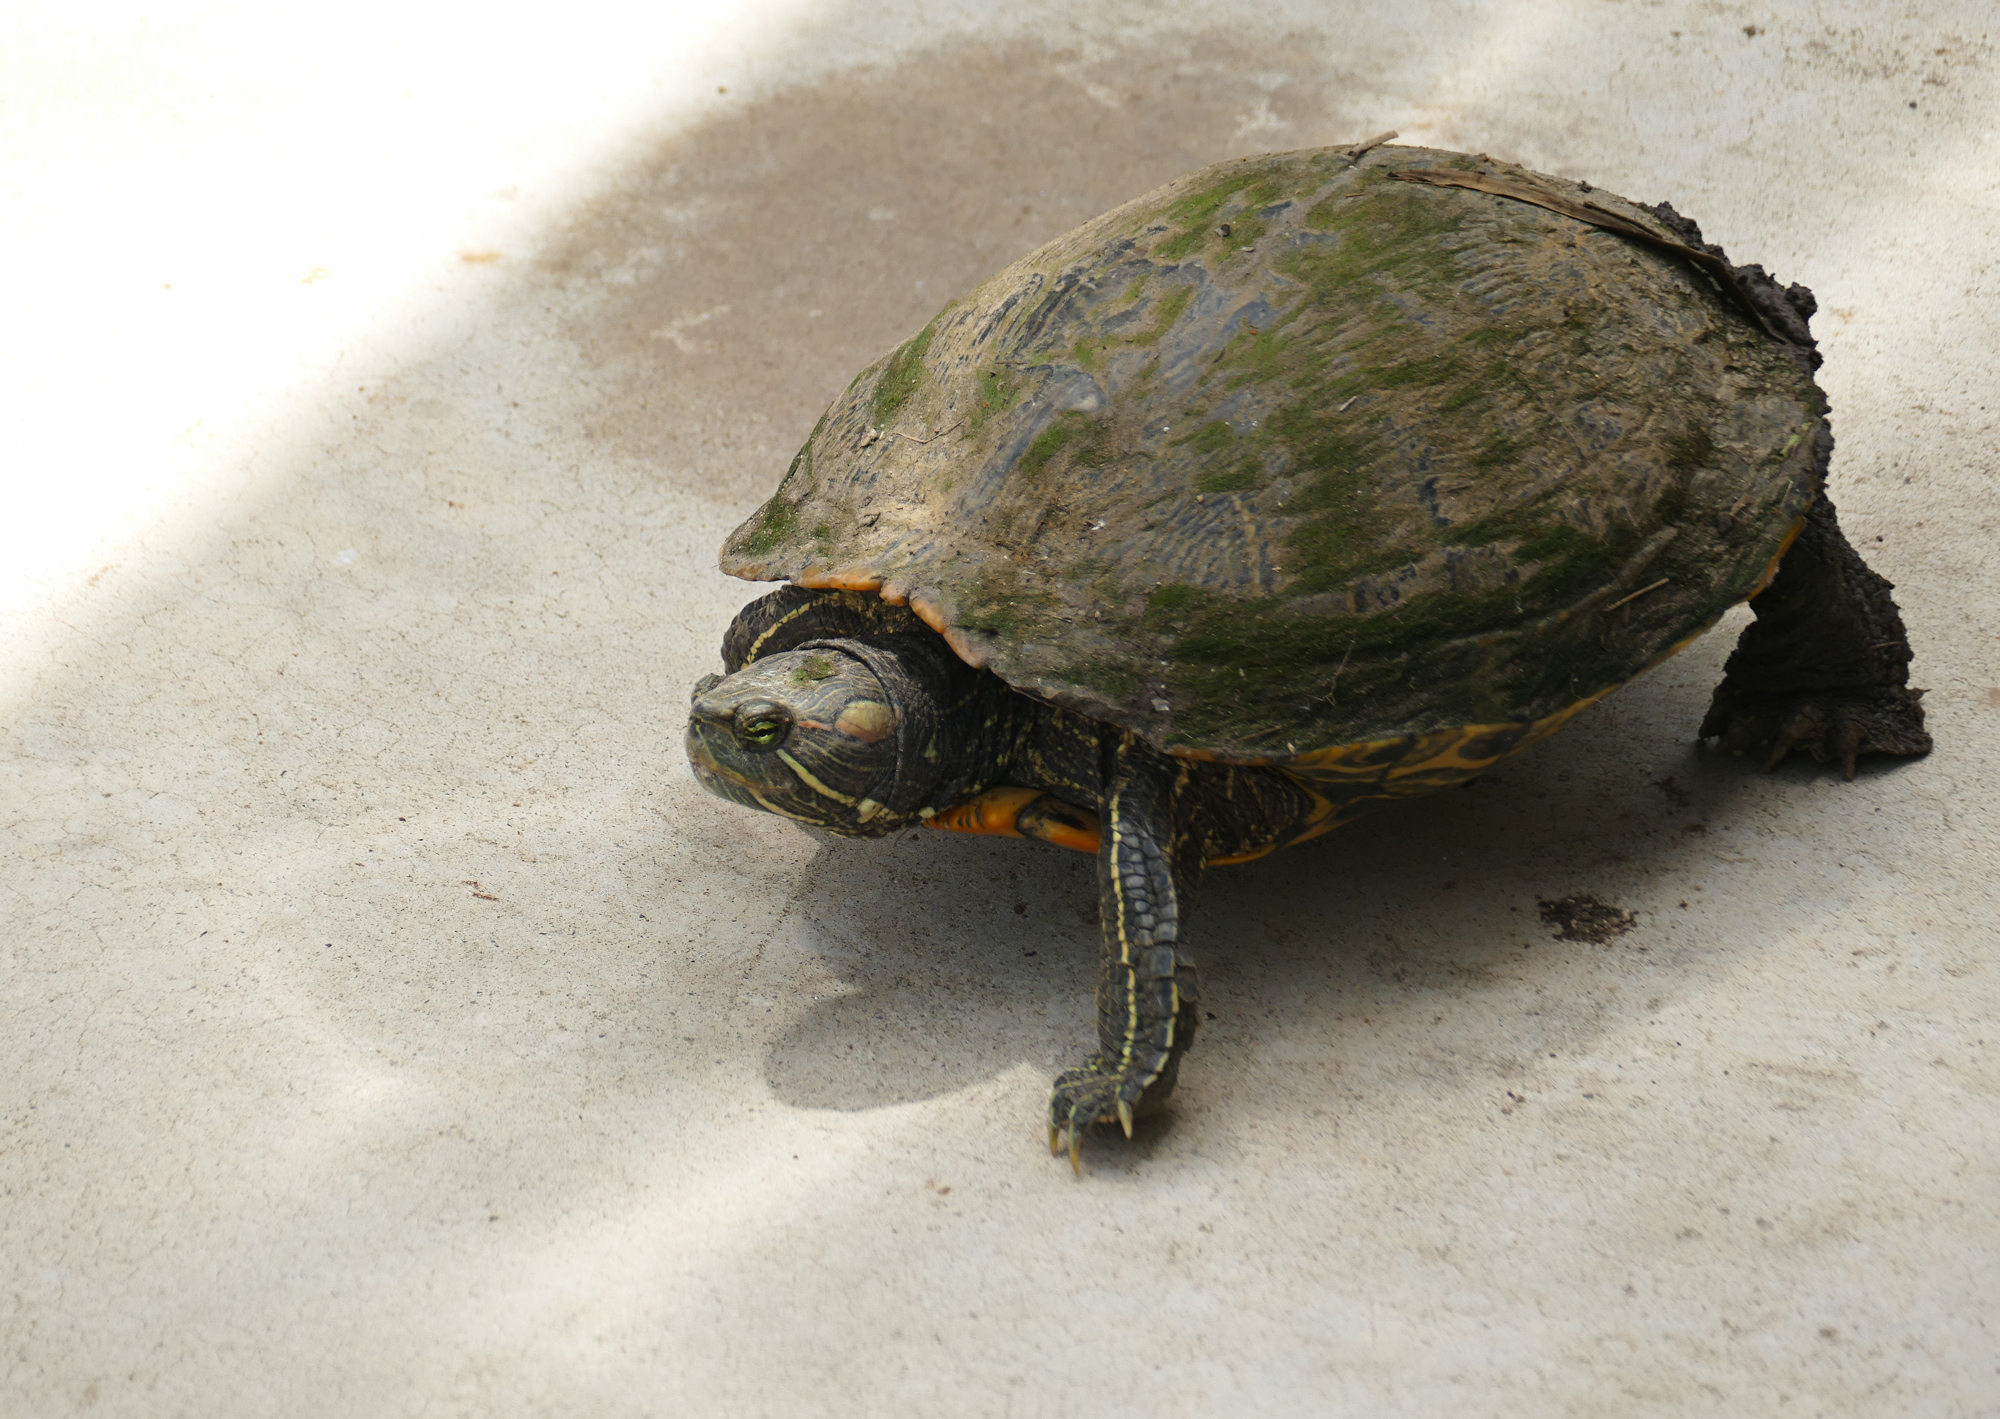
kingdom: Animalia
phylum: Chordata
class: Testudines
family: Emydidae
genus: Trachemys
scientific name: Trachemys scripta
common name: Slider
